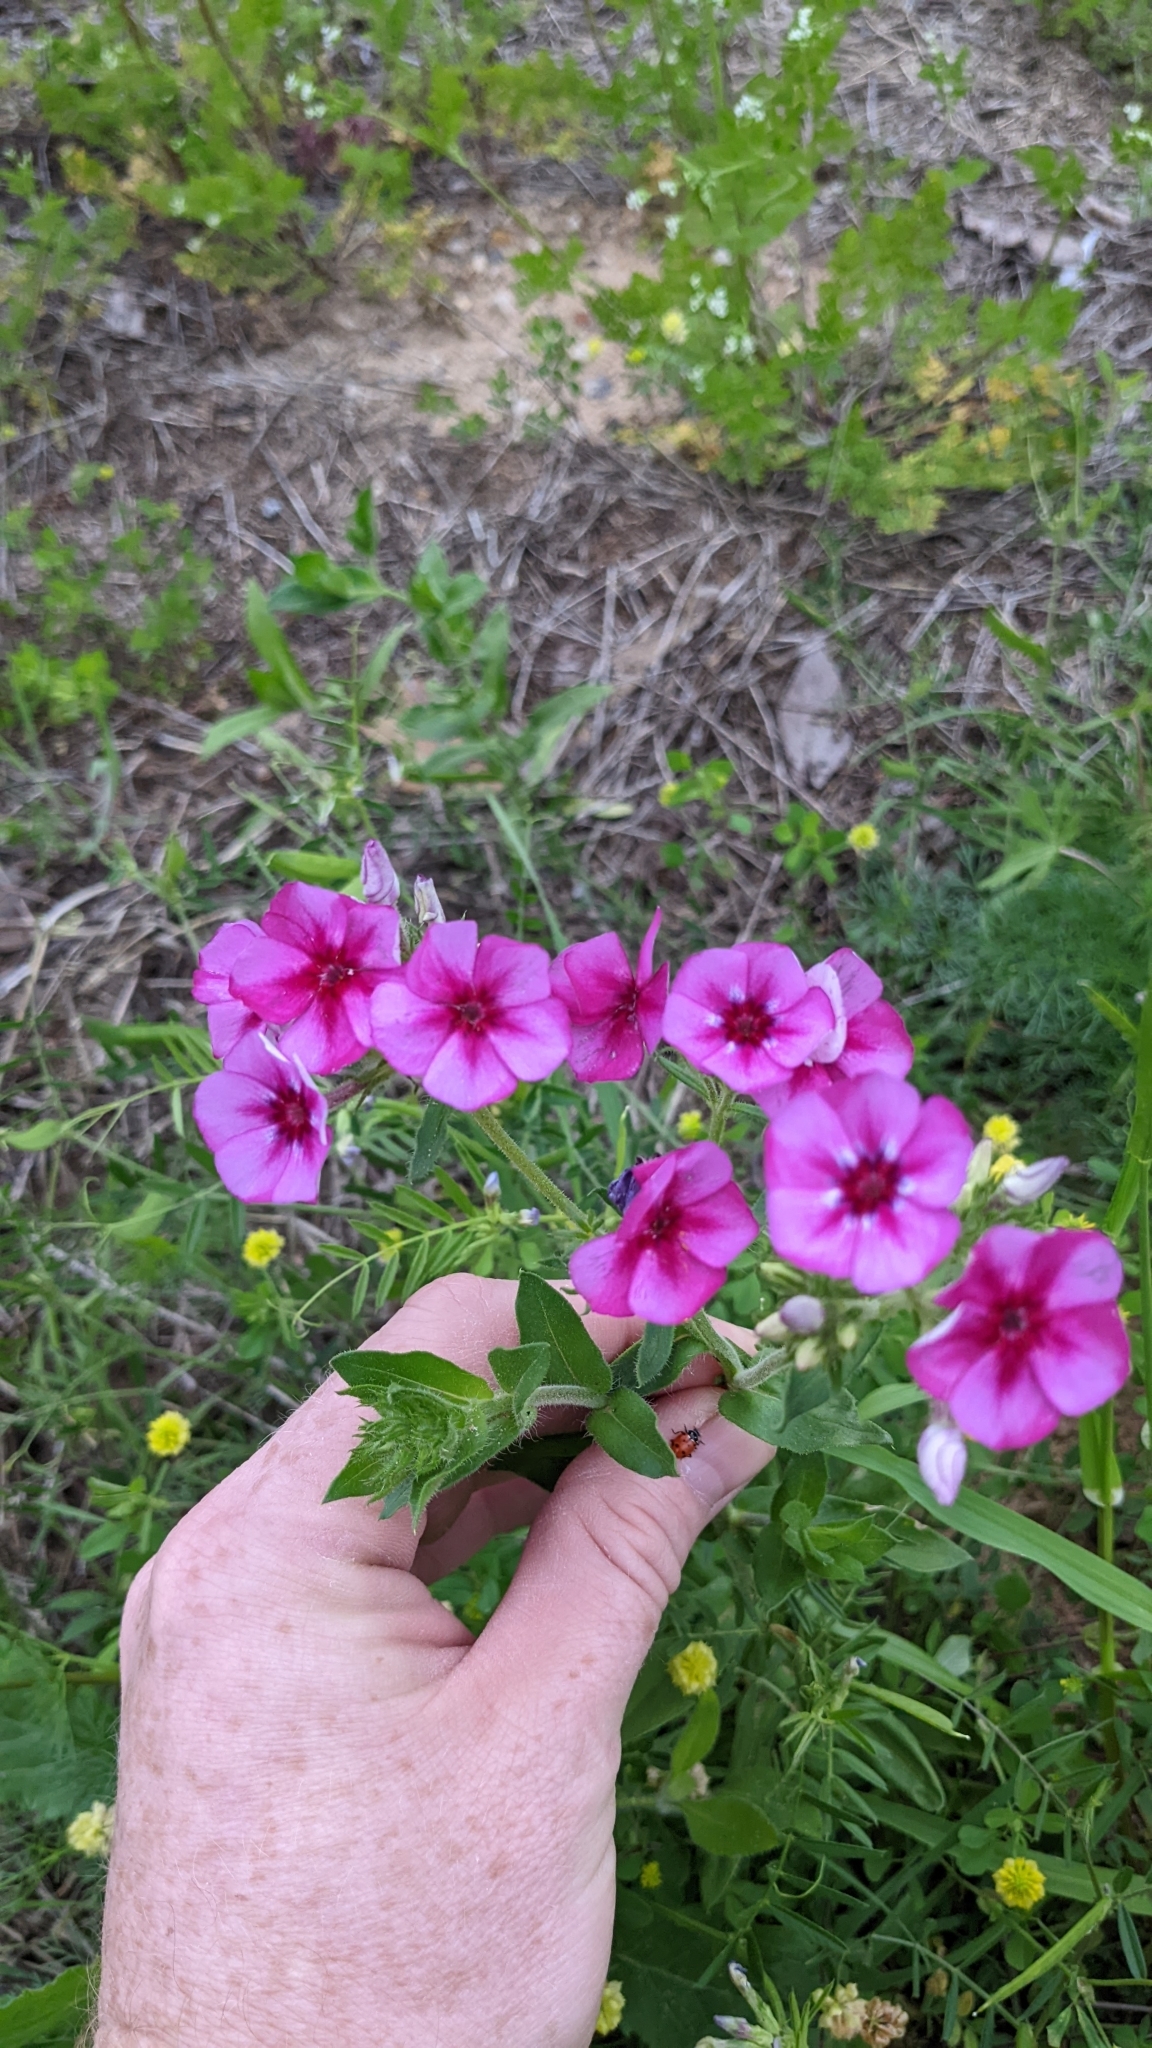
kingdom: Plantae
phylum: Tracheophyta
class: Magnoliopsida
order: Ericales
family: Polemoniaceae
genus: Phlox
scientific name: Phlox drummondii
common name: Drummond's phlox
